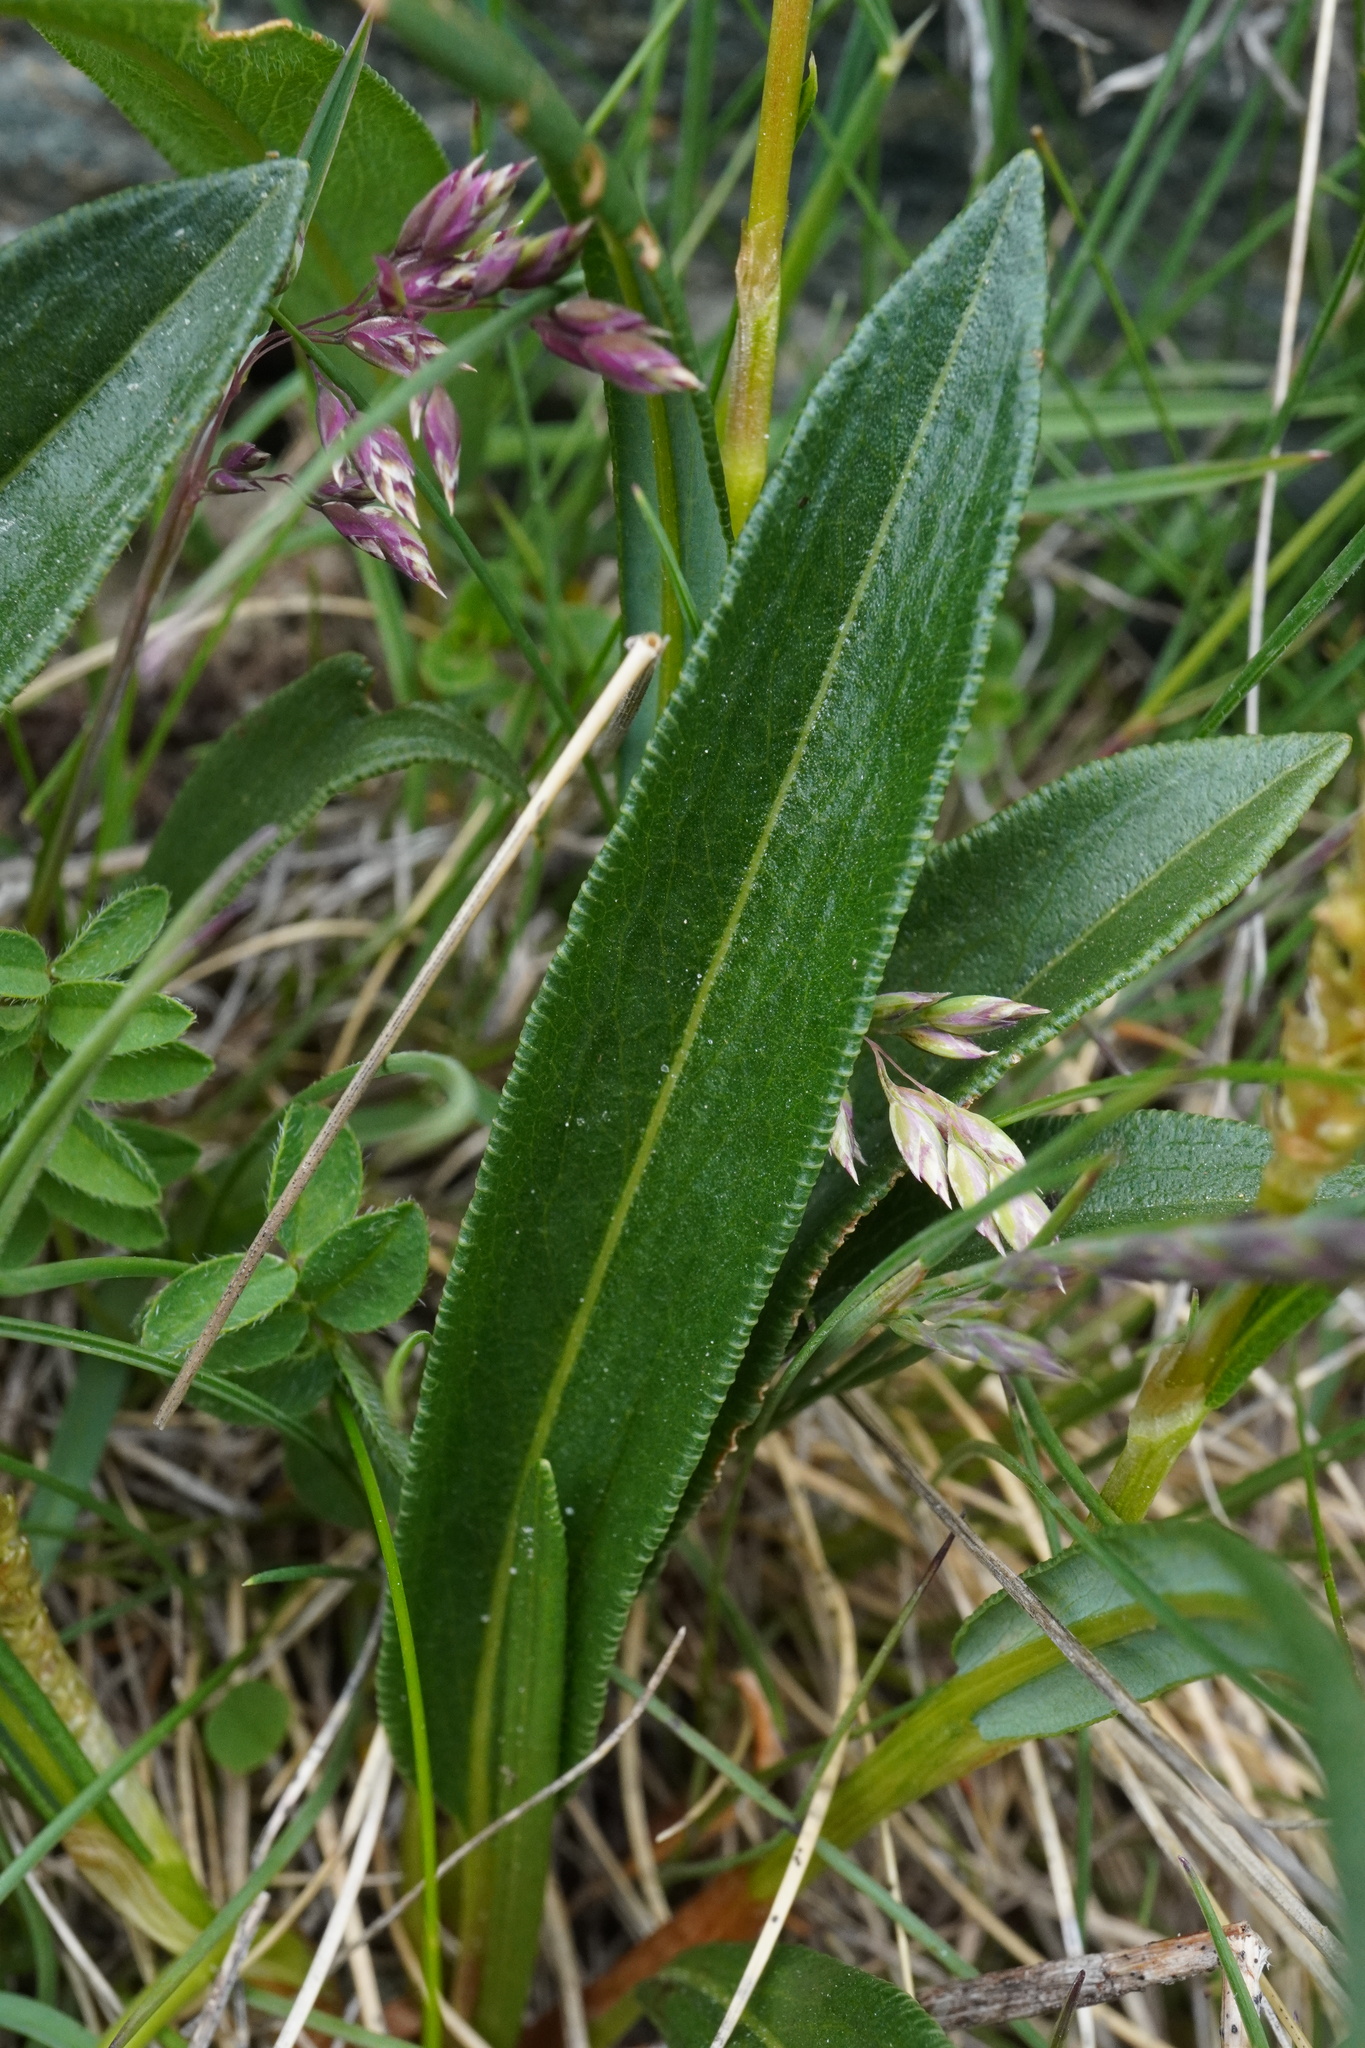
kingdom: Plantae
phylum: Tracheophyta
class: Magnoliopsida
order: Caryophyllales
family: Polygonaceae
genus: Bistorta
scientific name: Bistorta vivipara
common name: Alpine bistort
